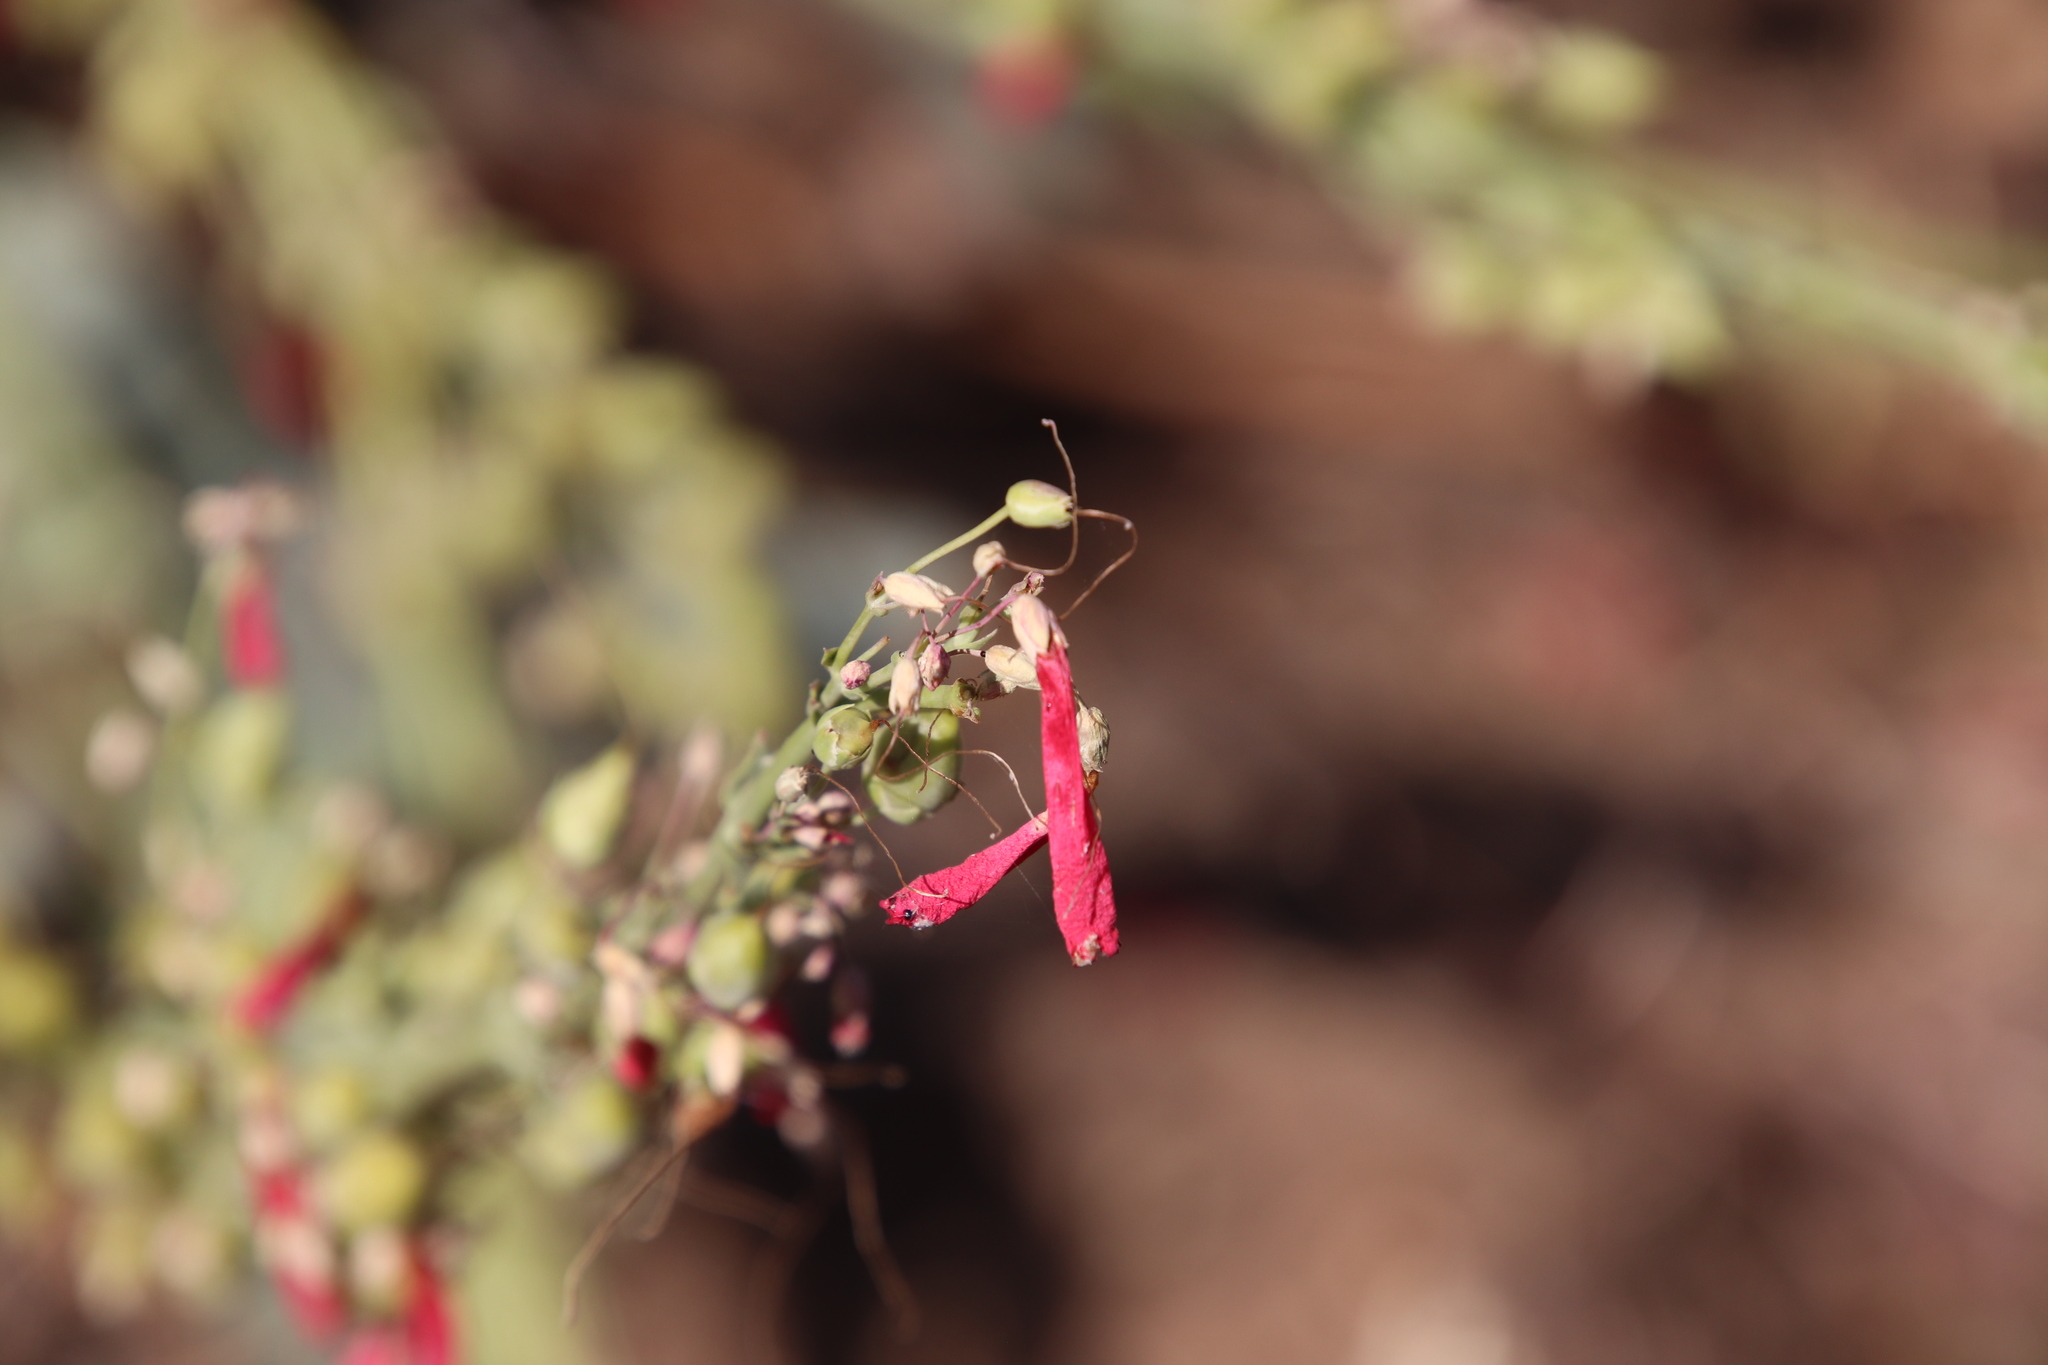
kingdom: Plantae
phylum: Tracheophyta
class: Magnoliopsida
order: Lamiales
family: Plantaginaceae
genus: Penstemon
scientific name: Penstemon centranthifolius
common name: Scarlet bugler
